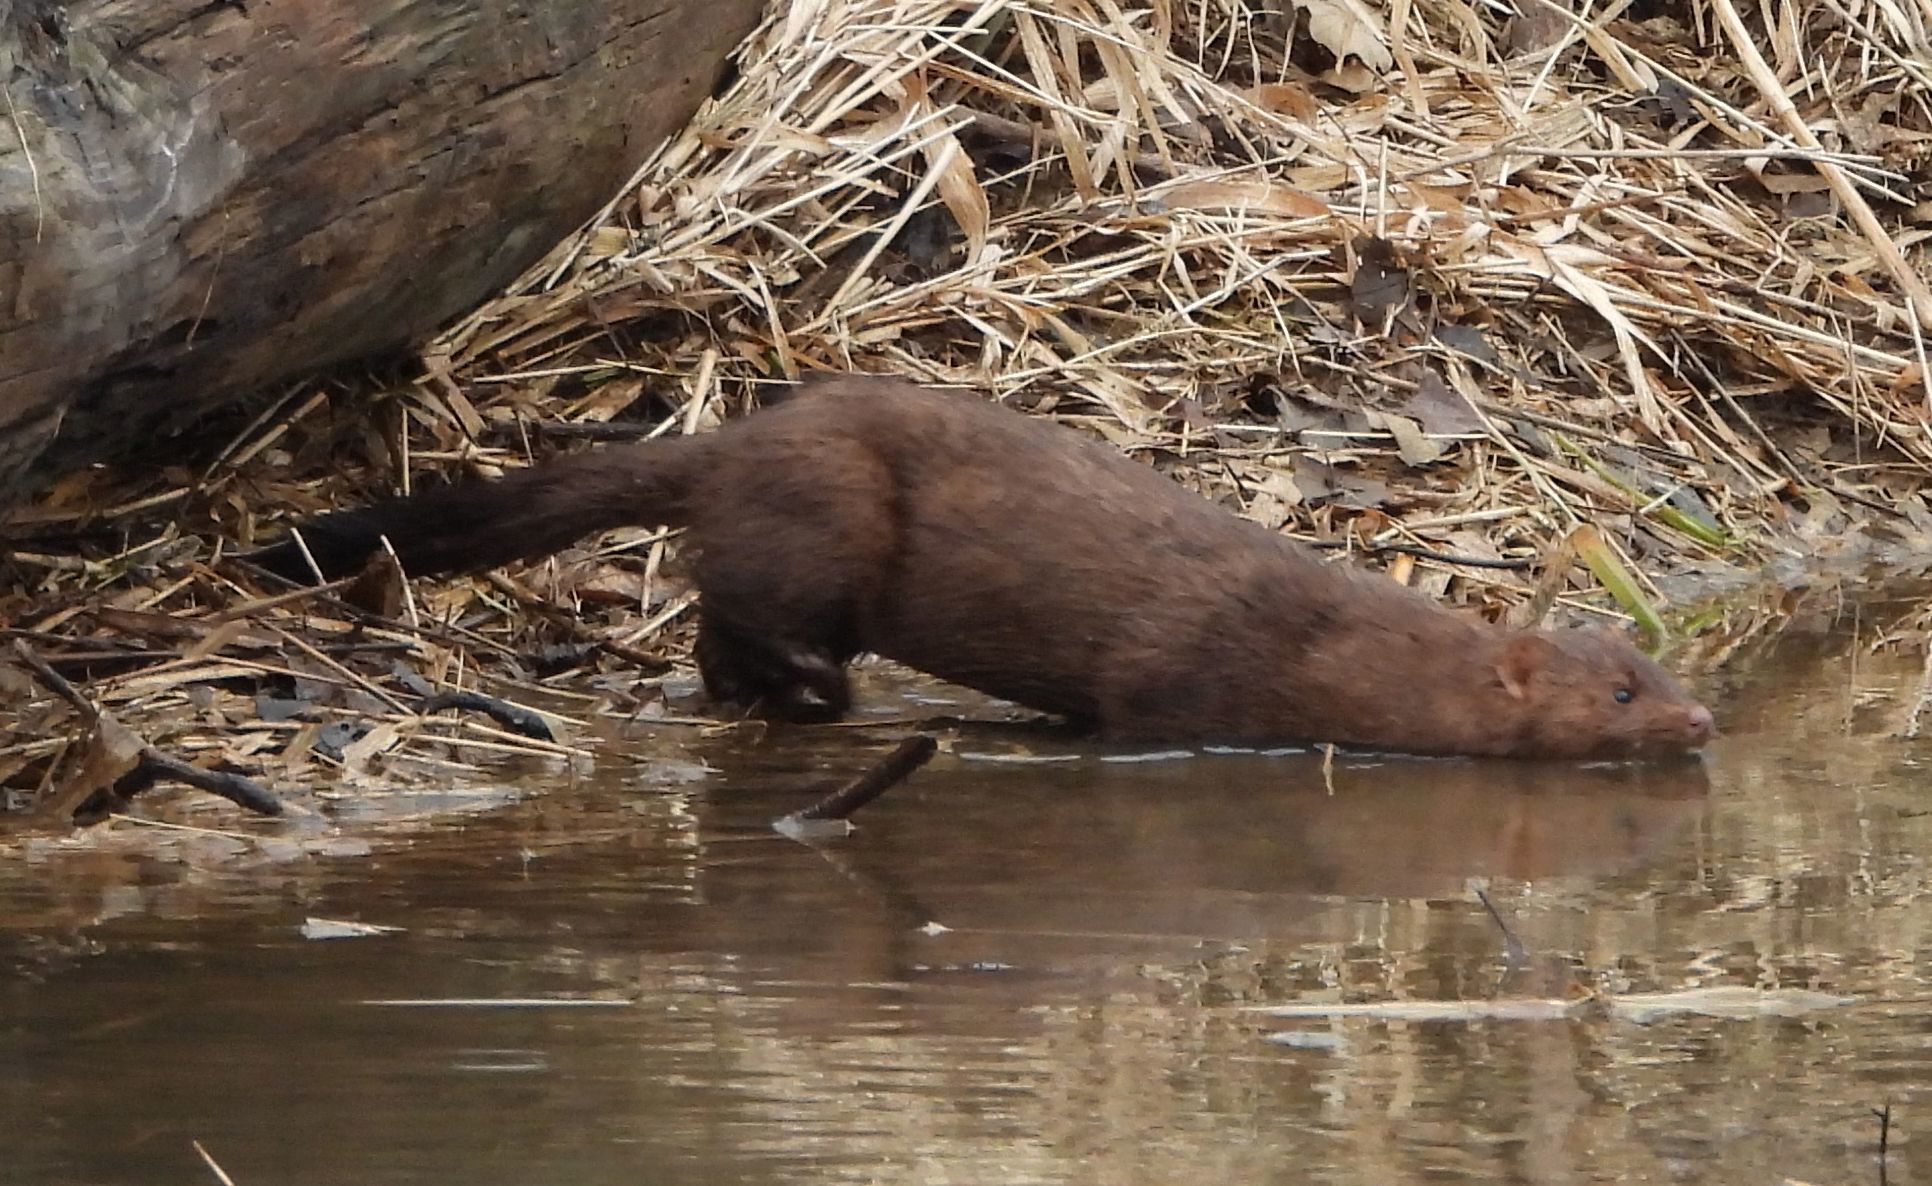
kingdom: Animalia
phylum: Chordata
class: Mammalia
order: Carnivora
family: Mustelidae
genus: Mustela
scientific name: Mustela
